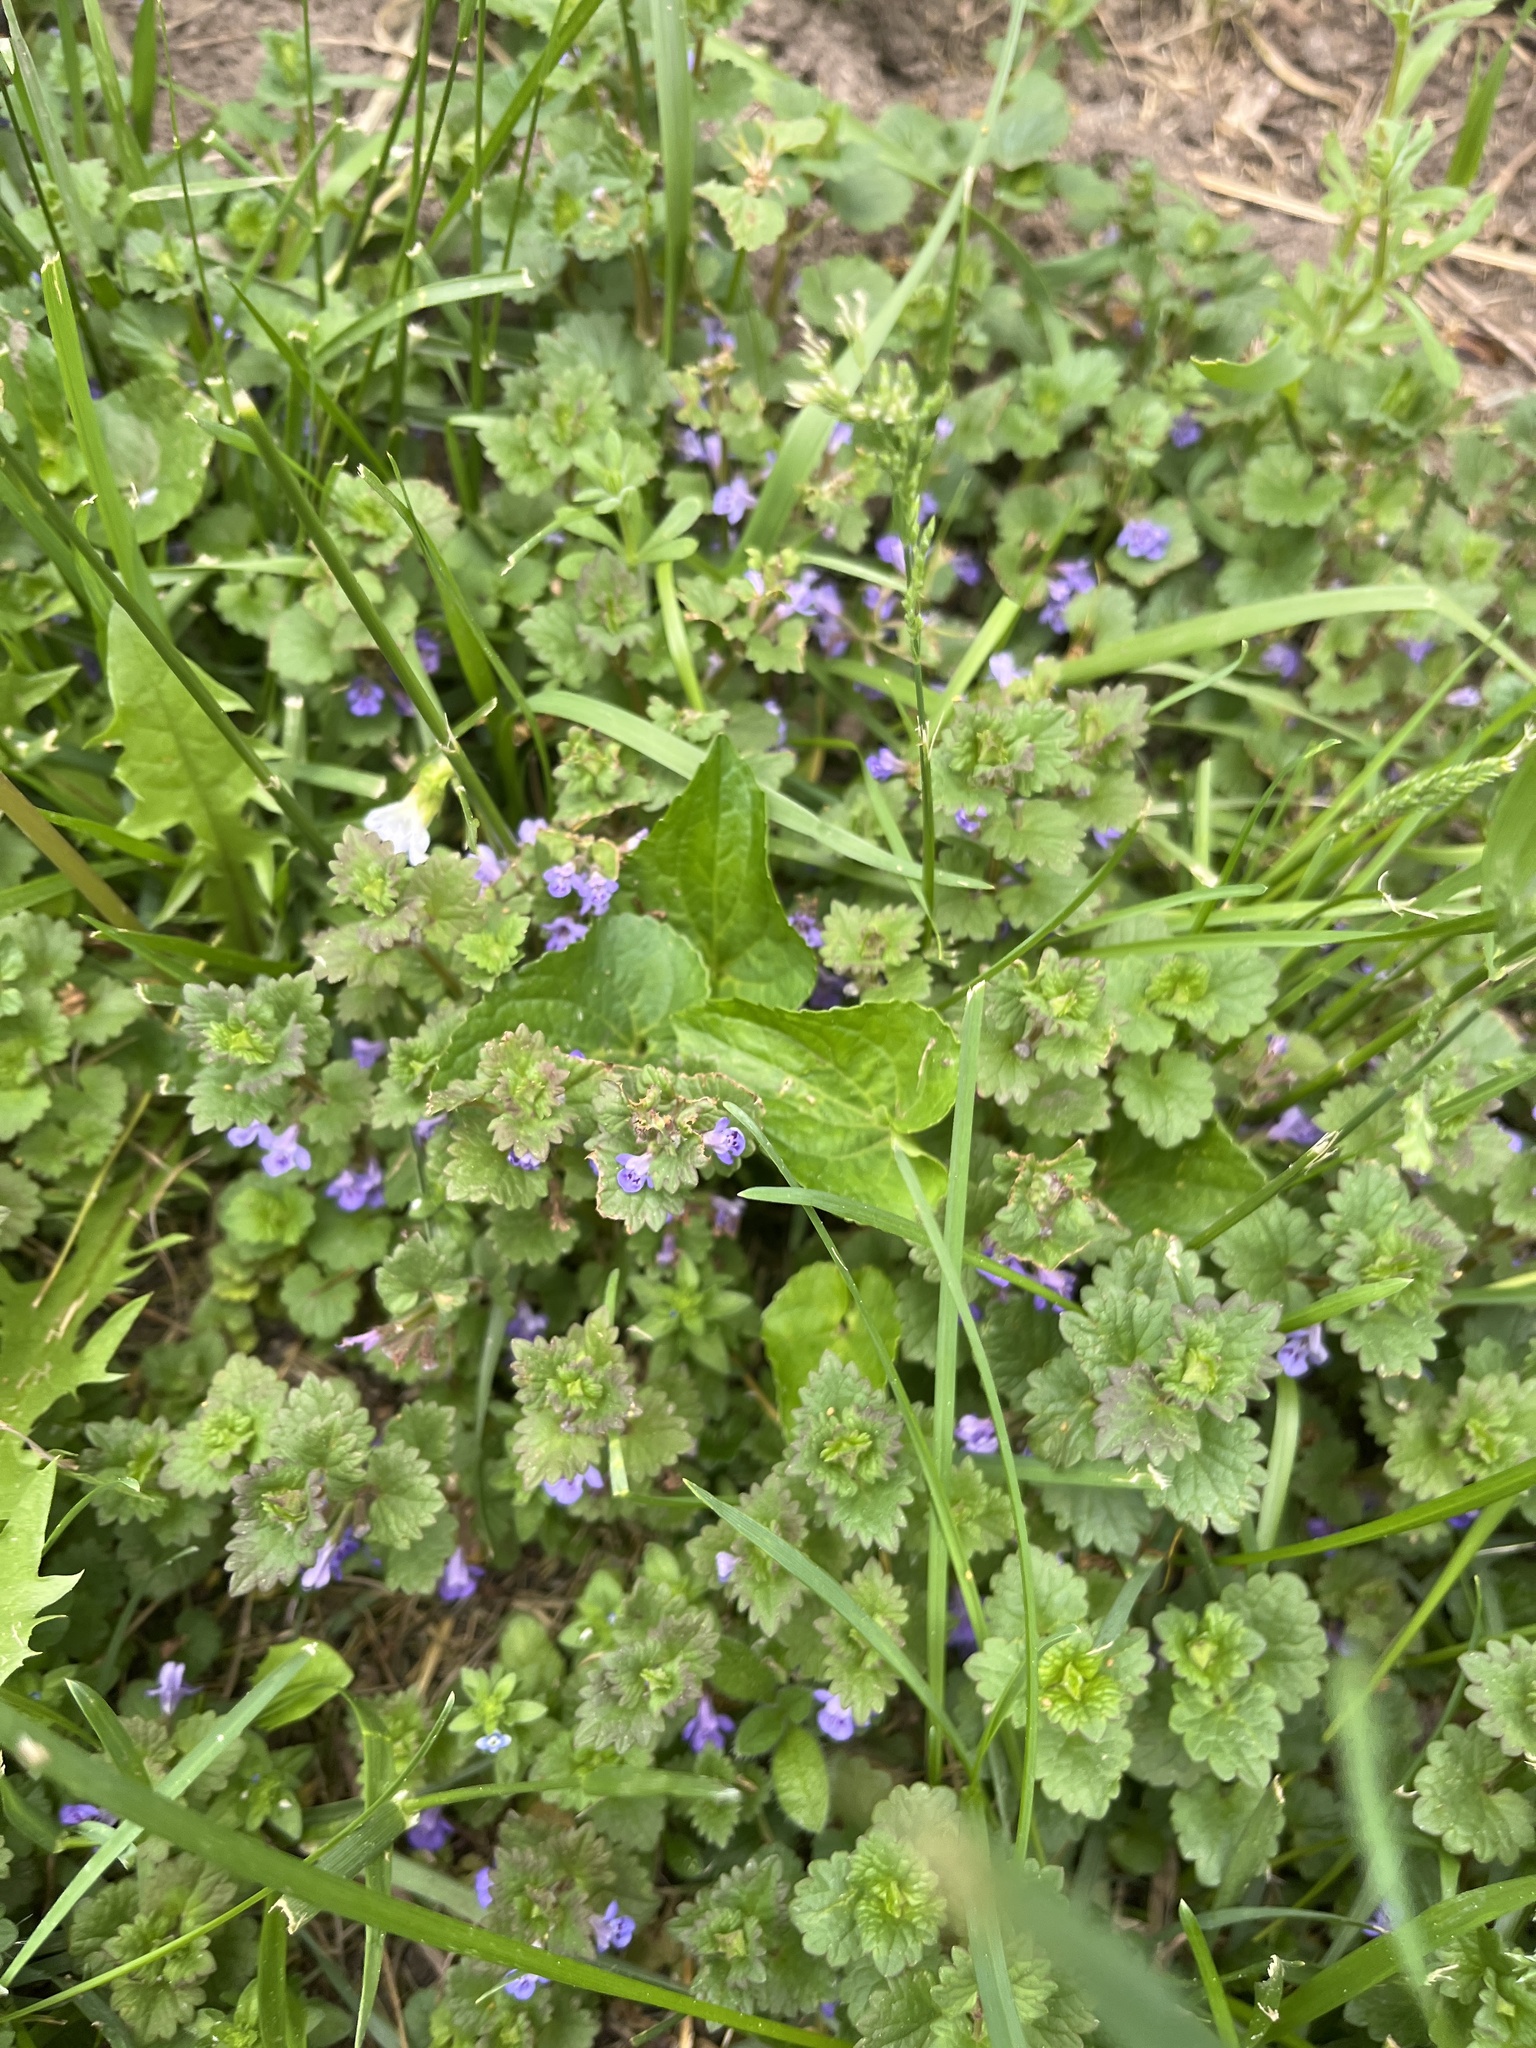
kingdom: Plantae
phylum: Tracheophyta
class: Magnoliopsida
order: Lamiales
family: Lamiaceae
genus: Glechoma
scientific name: Glechoma hederacea
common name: Ground ivy
